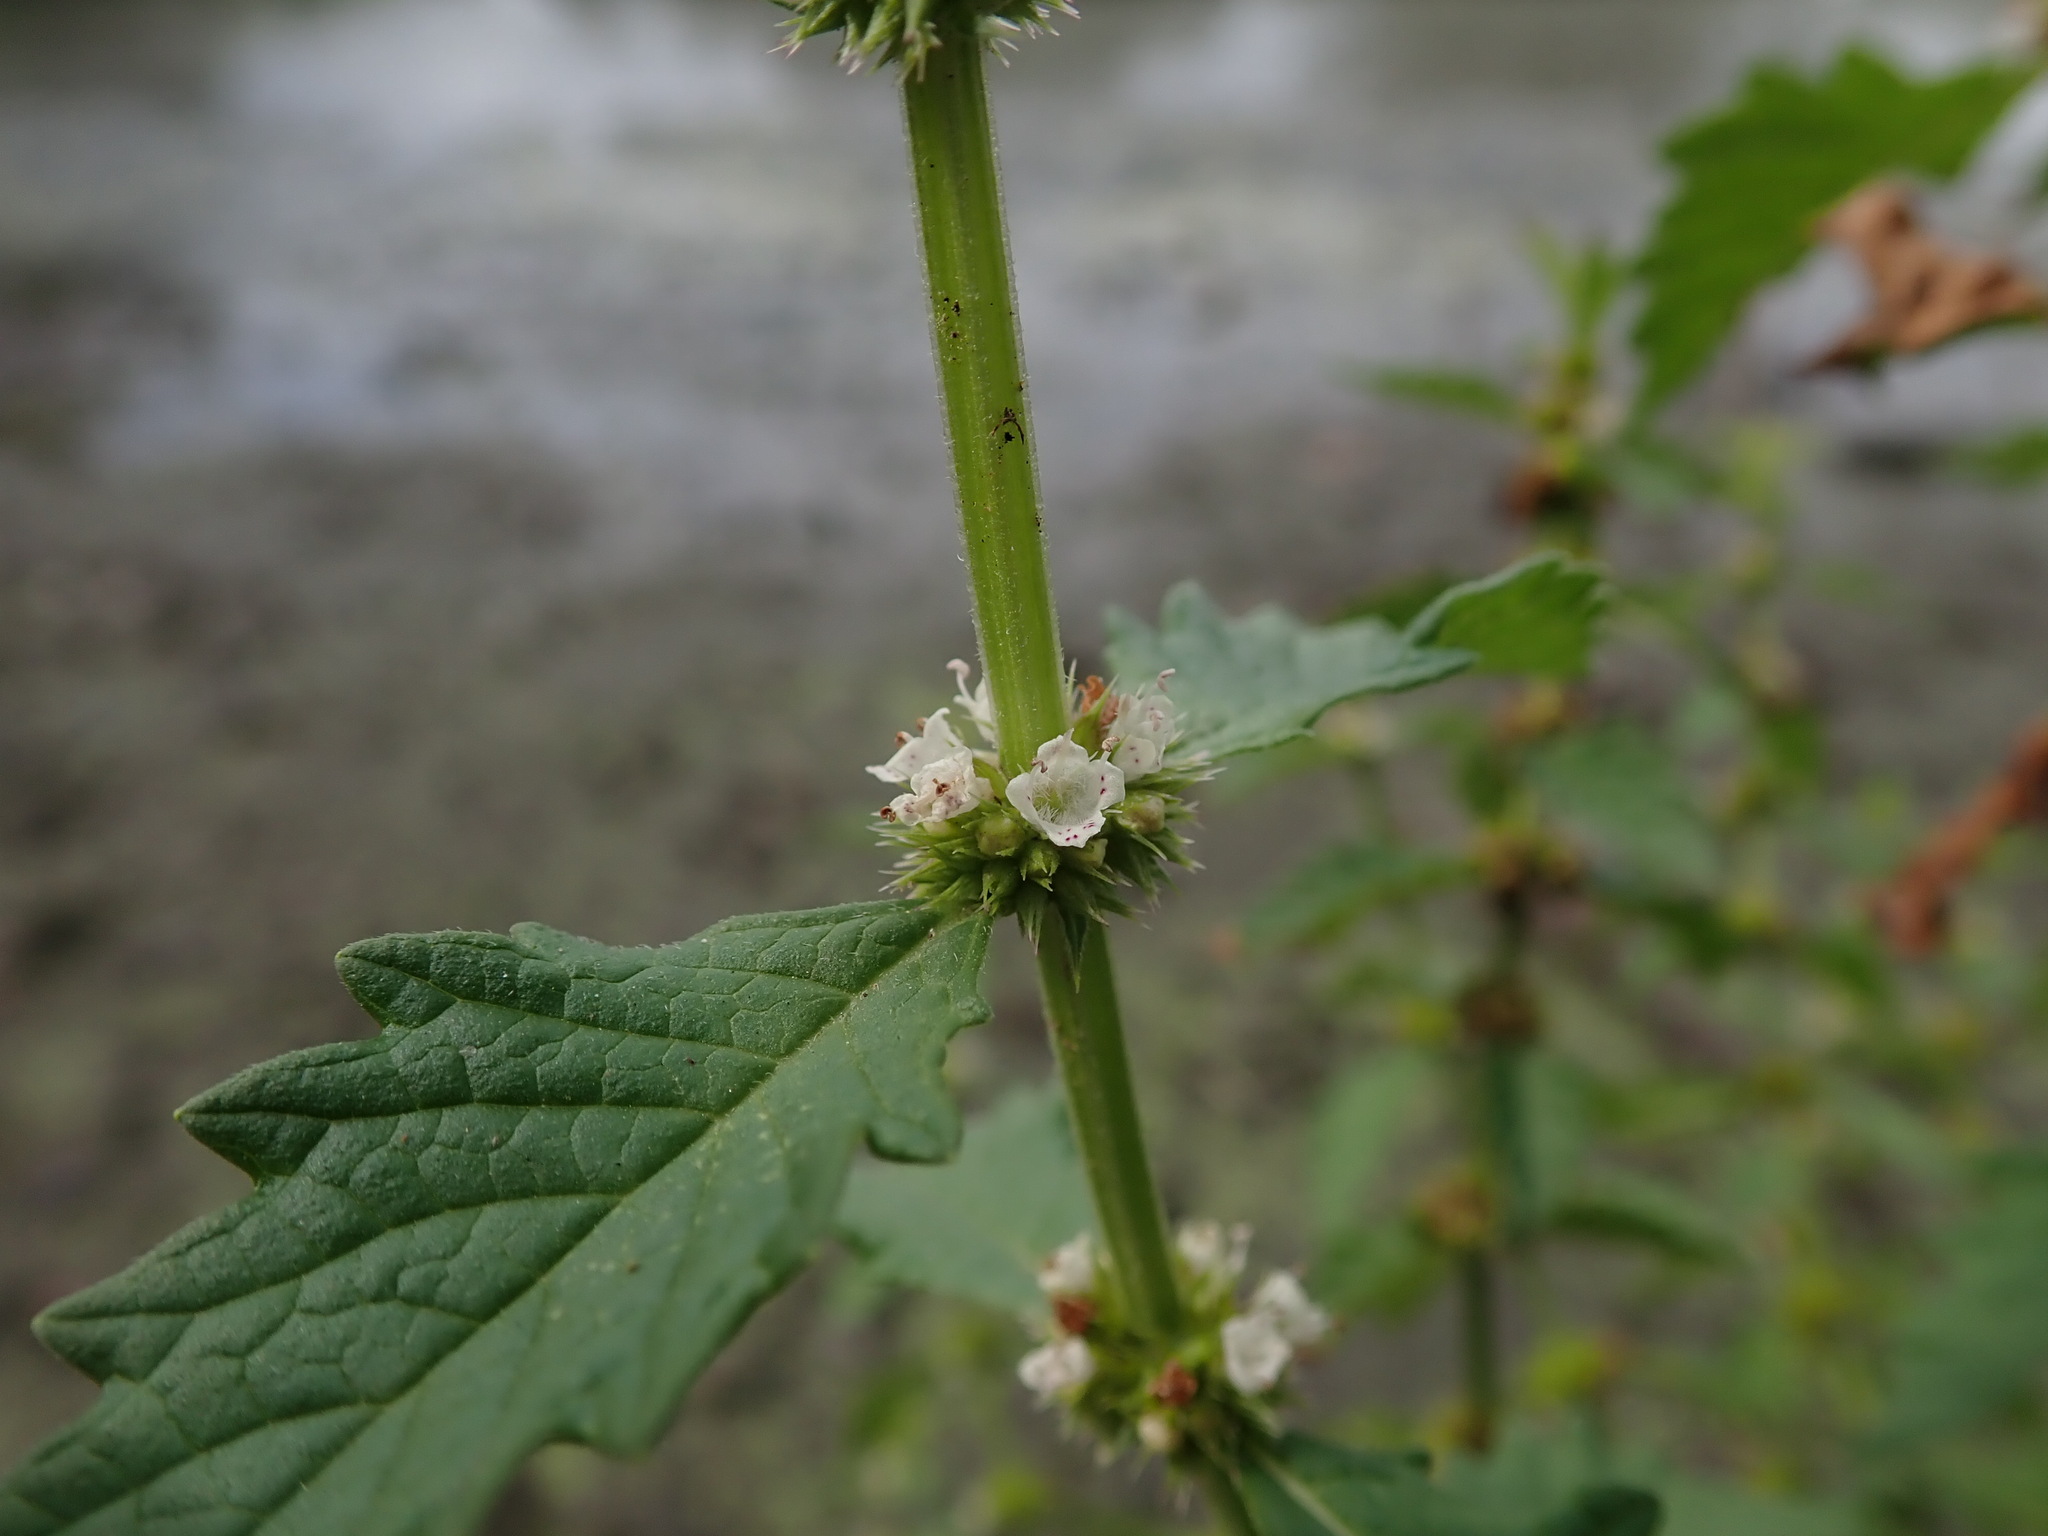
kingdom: Plantae
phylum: Tracheophyta
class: Magnoliopsida
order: Lamiales
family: Lamiaceae
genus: Lycopus
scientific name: Lycopus europaeus
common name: European bugleweed
